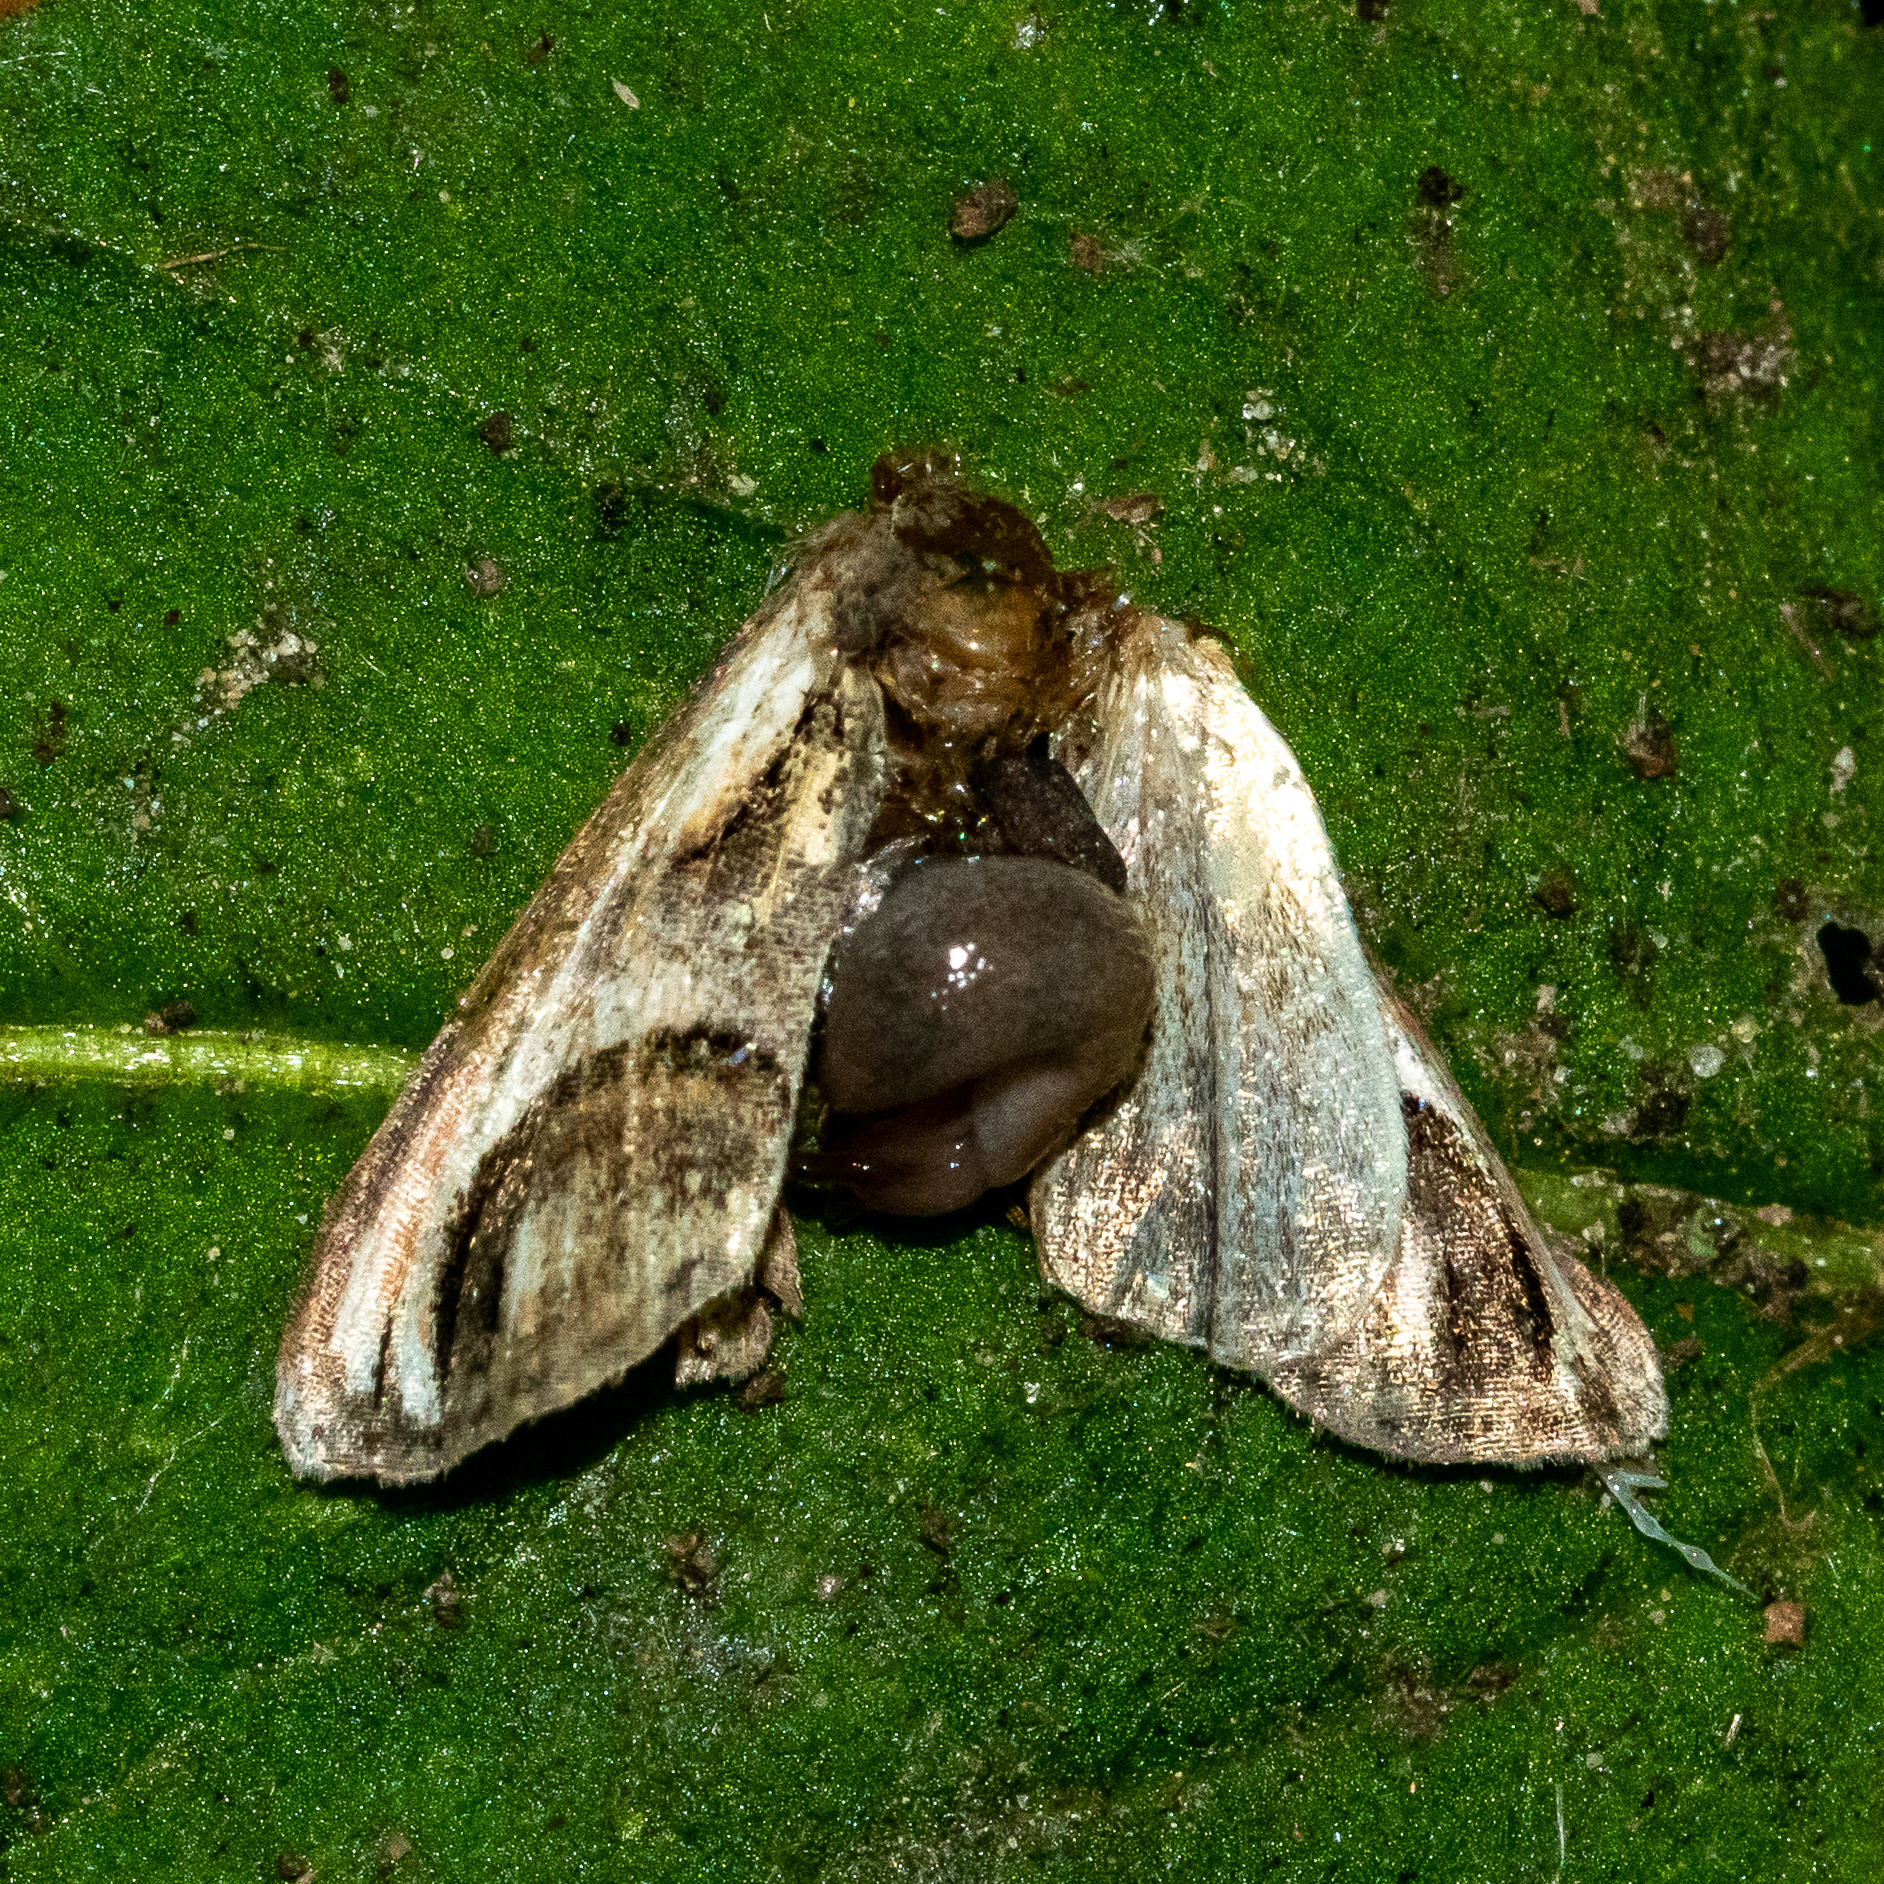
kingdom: Animalia
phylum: Arthropoda
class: Insecta
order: Lepidoptera
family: Euteliidae
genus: Paectes
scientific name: Paectes oculatrix
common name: Eyed paectes moth
